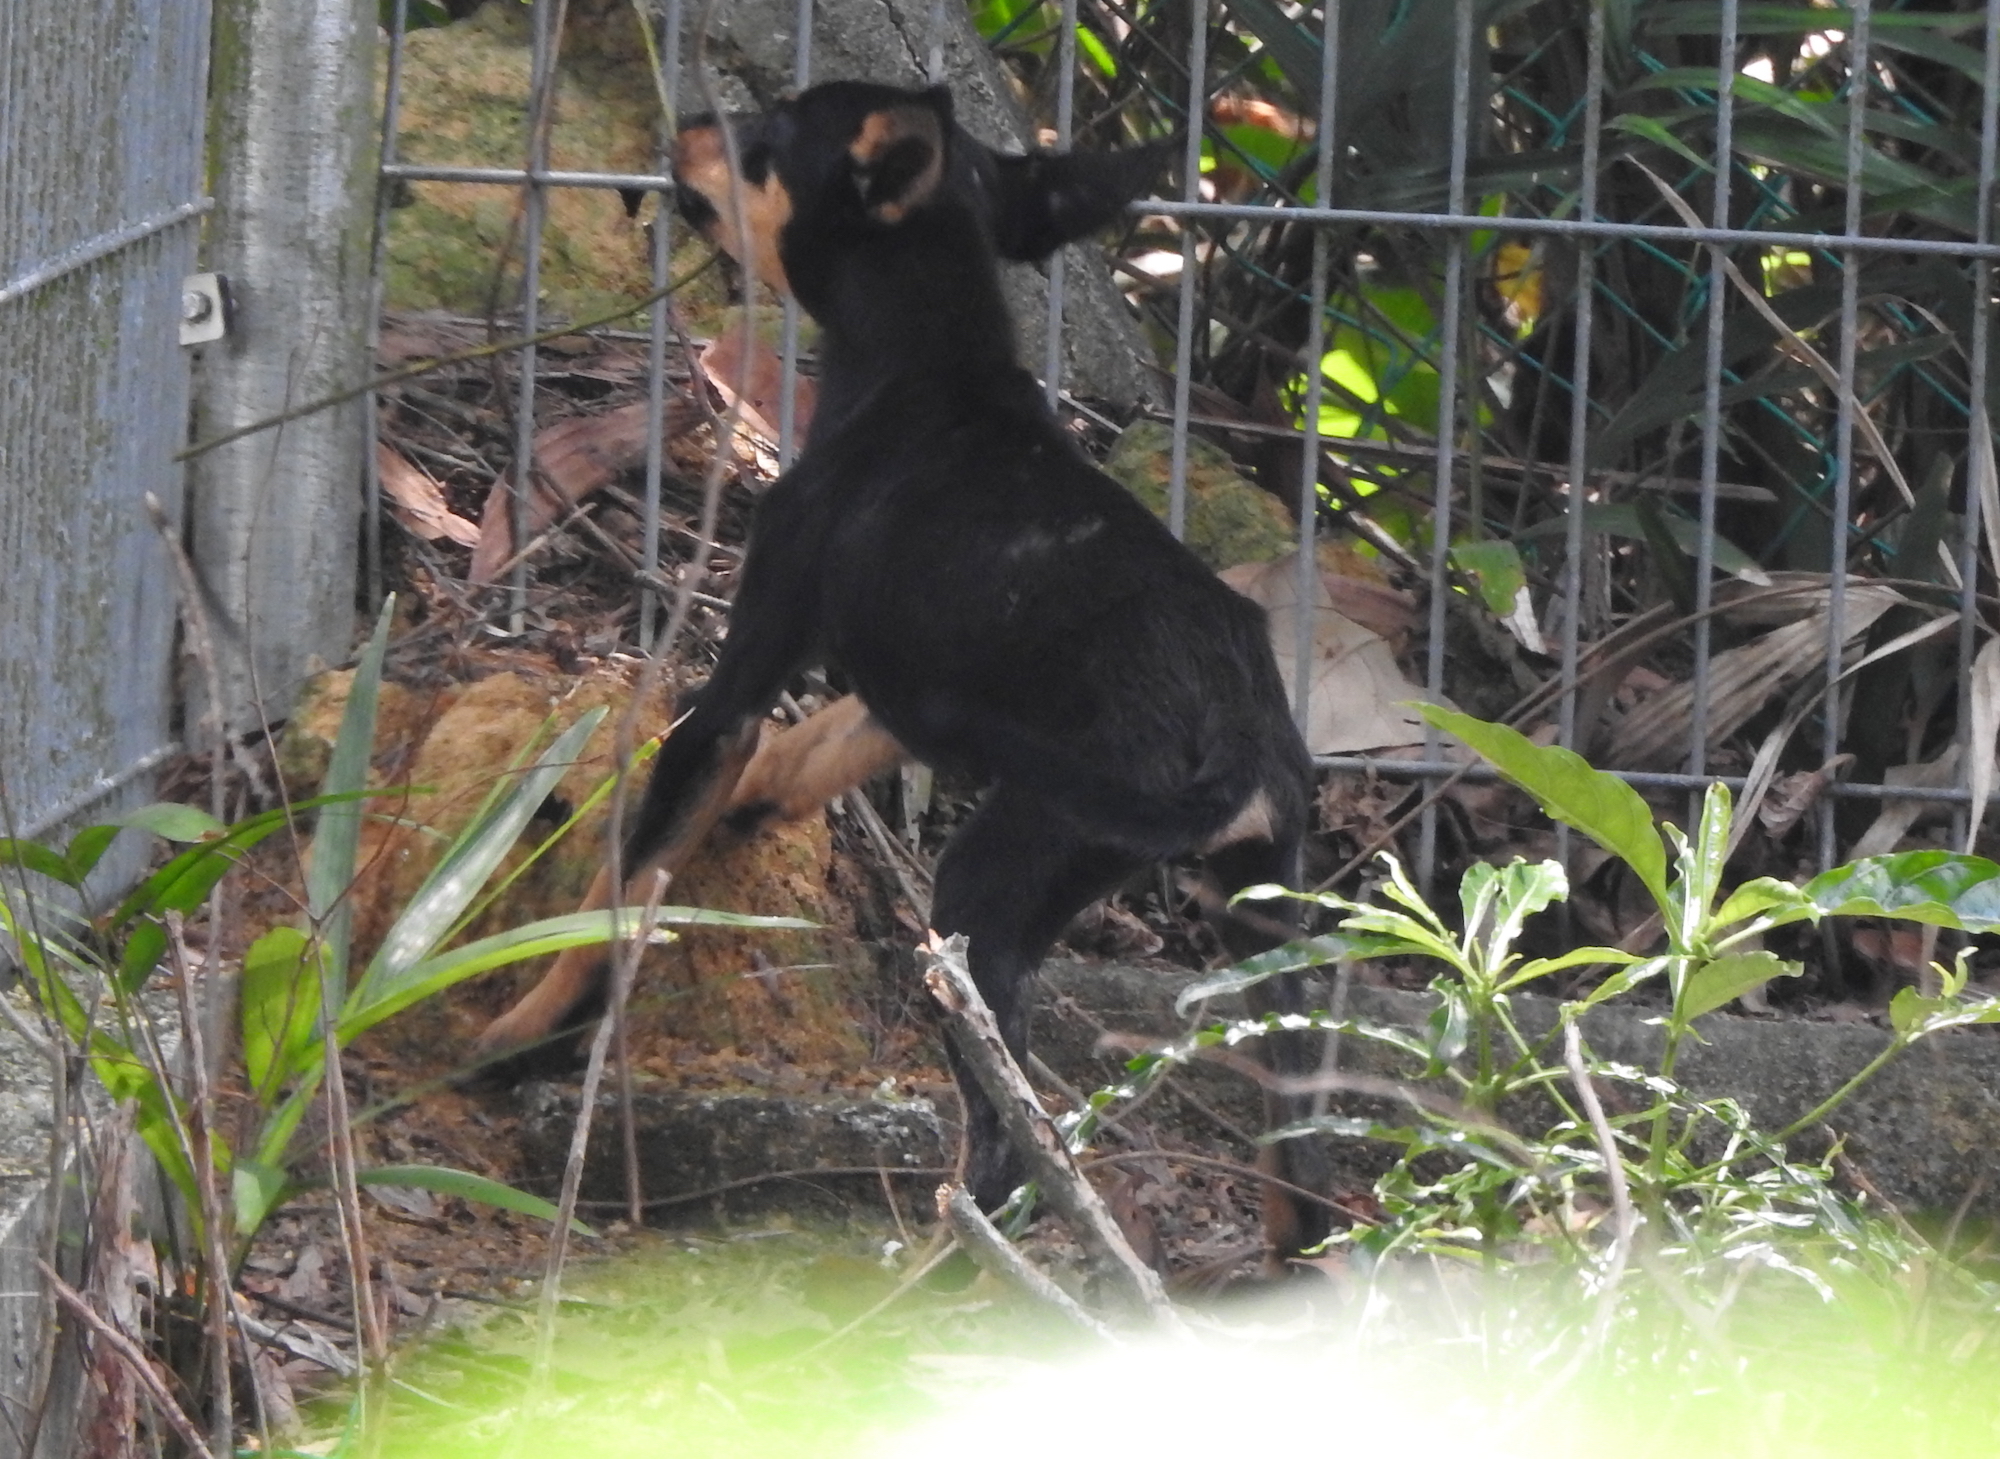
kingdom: Animalia
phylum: Chordata
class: Mammalia
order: Carnivora
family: Canidae
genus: Canis
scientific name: Canis lupus
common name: Gray wolf
